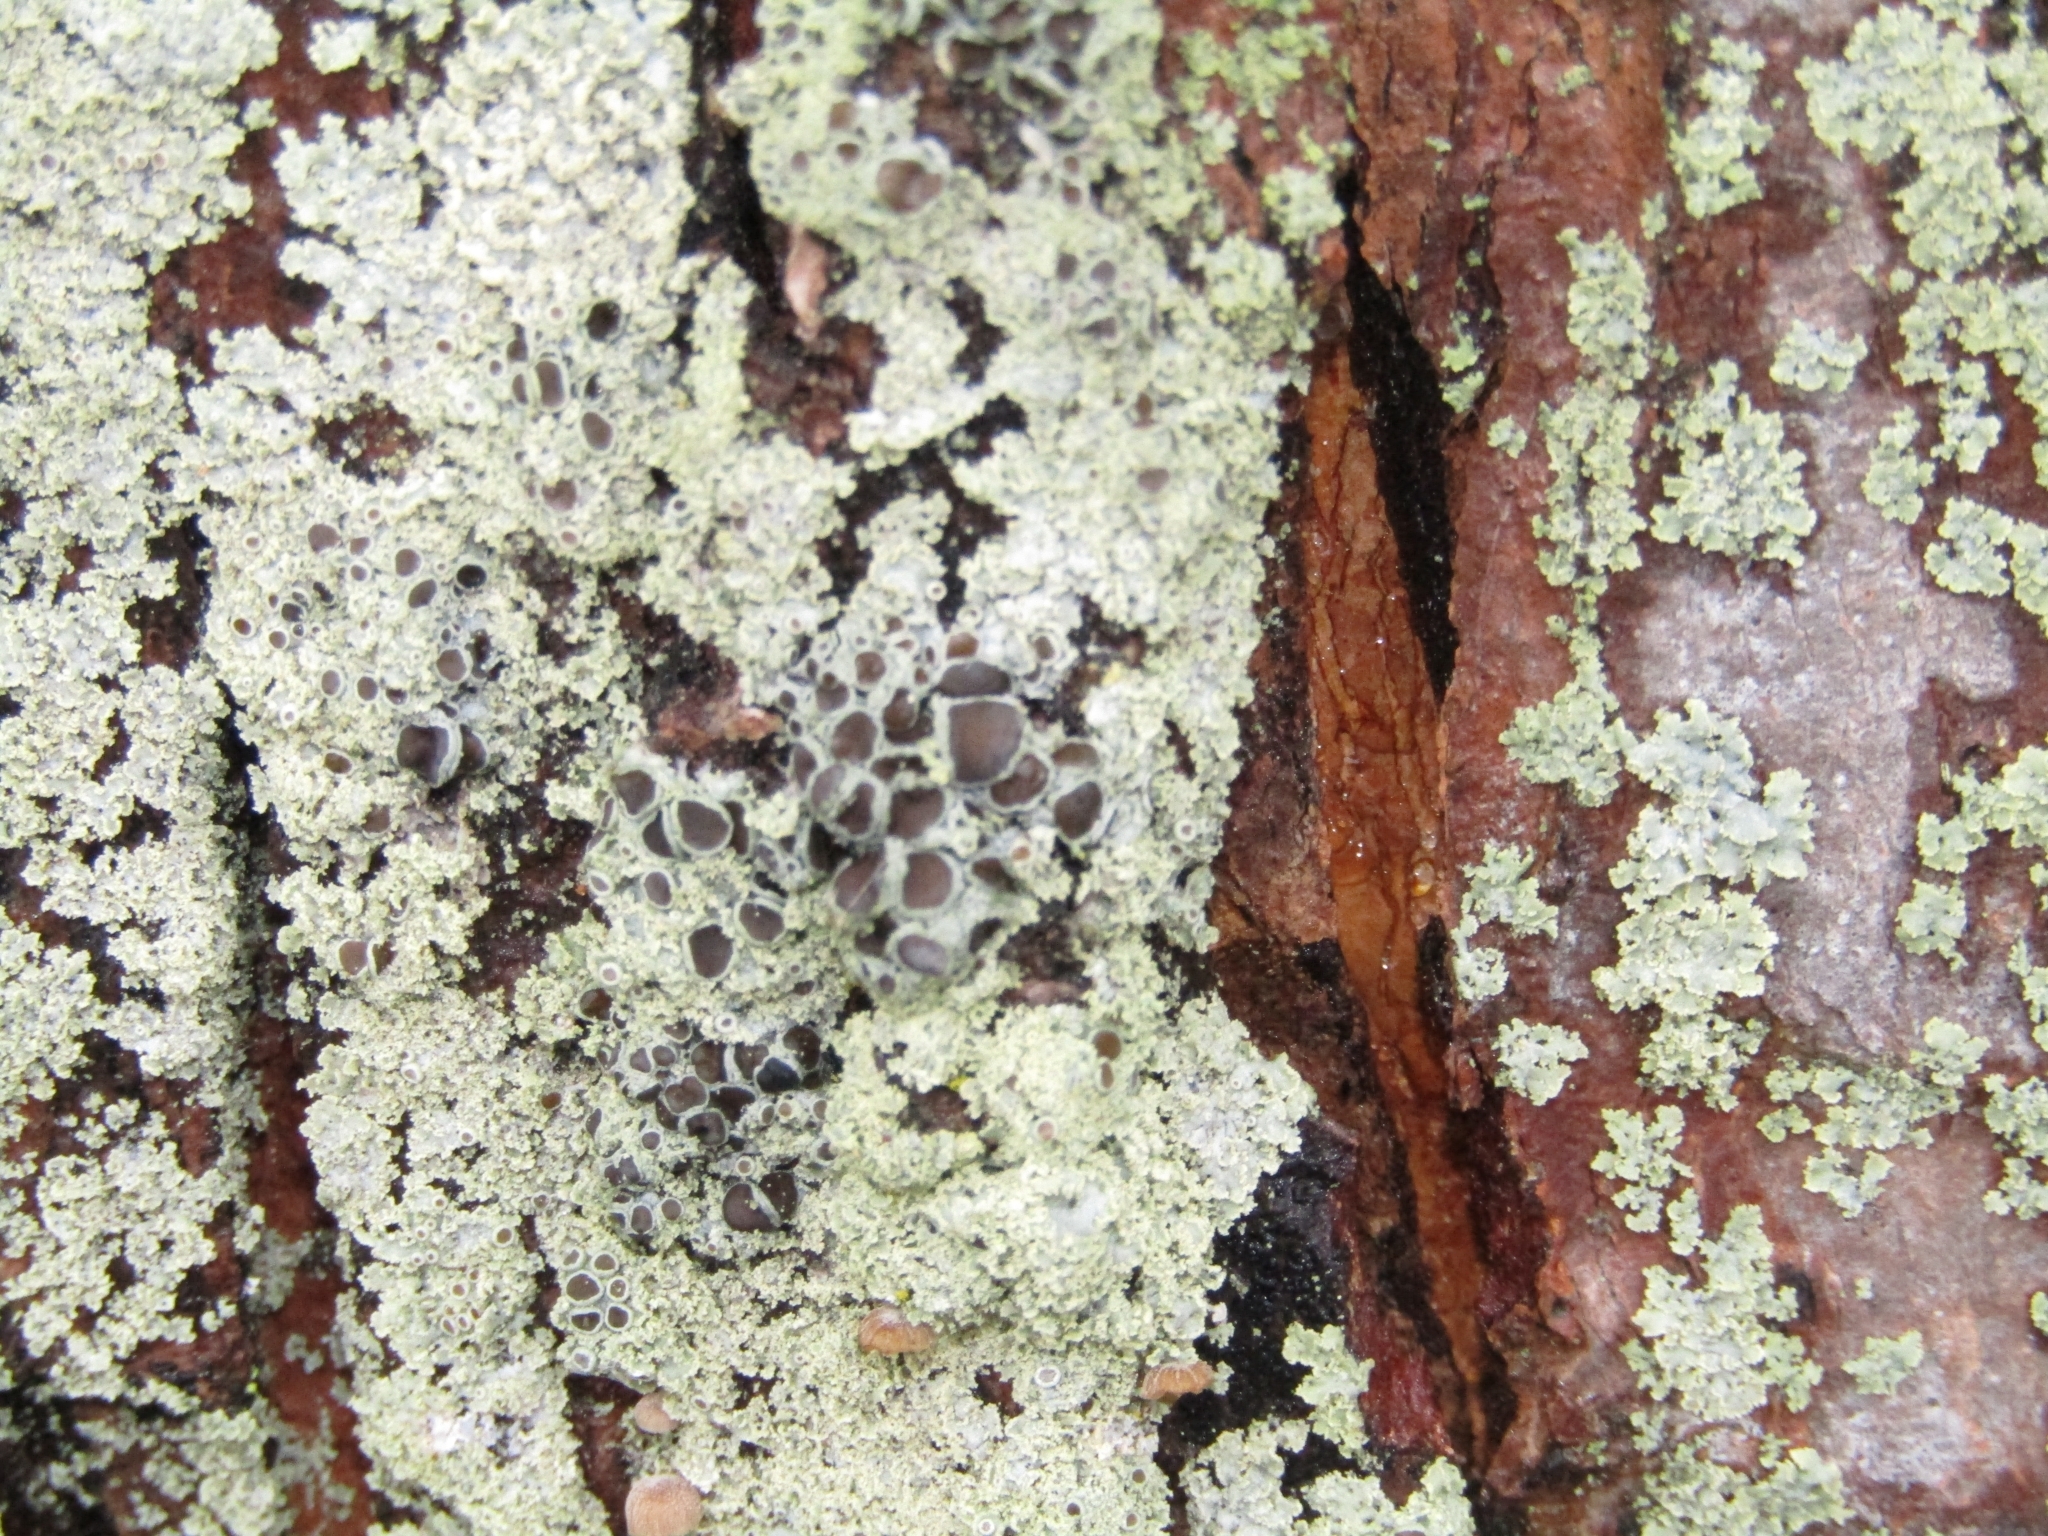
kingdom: Fungi
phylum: Ascomycota
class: Lecanoromycetes
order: Caliciales
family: Physciaceae
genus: Physcia
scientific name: Physcia millegrana
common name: Rosette lichen
